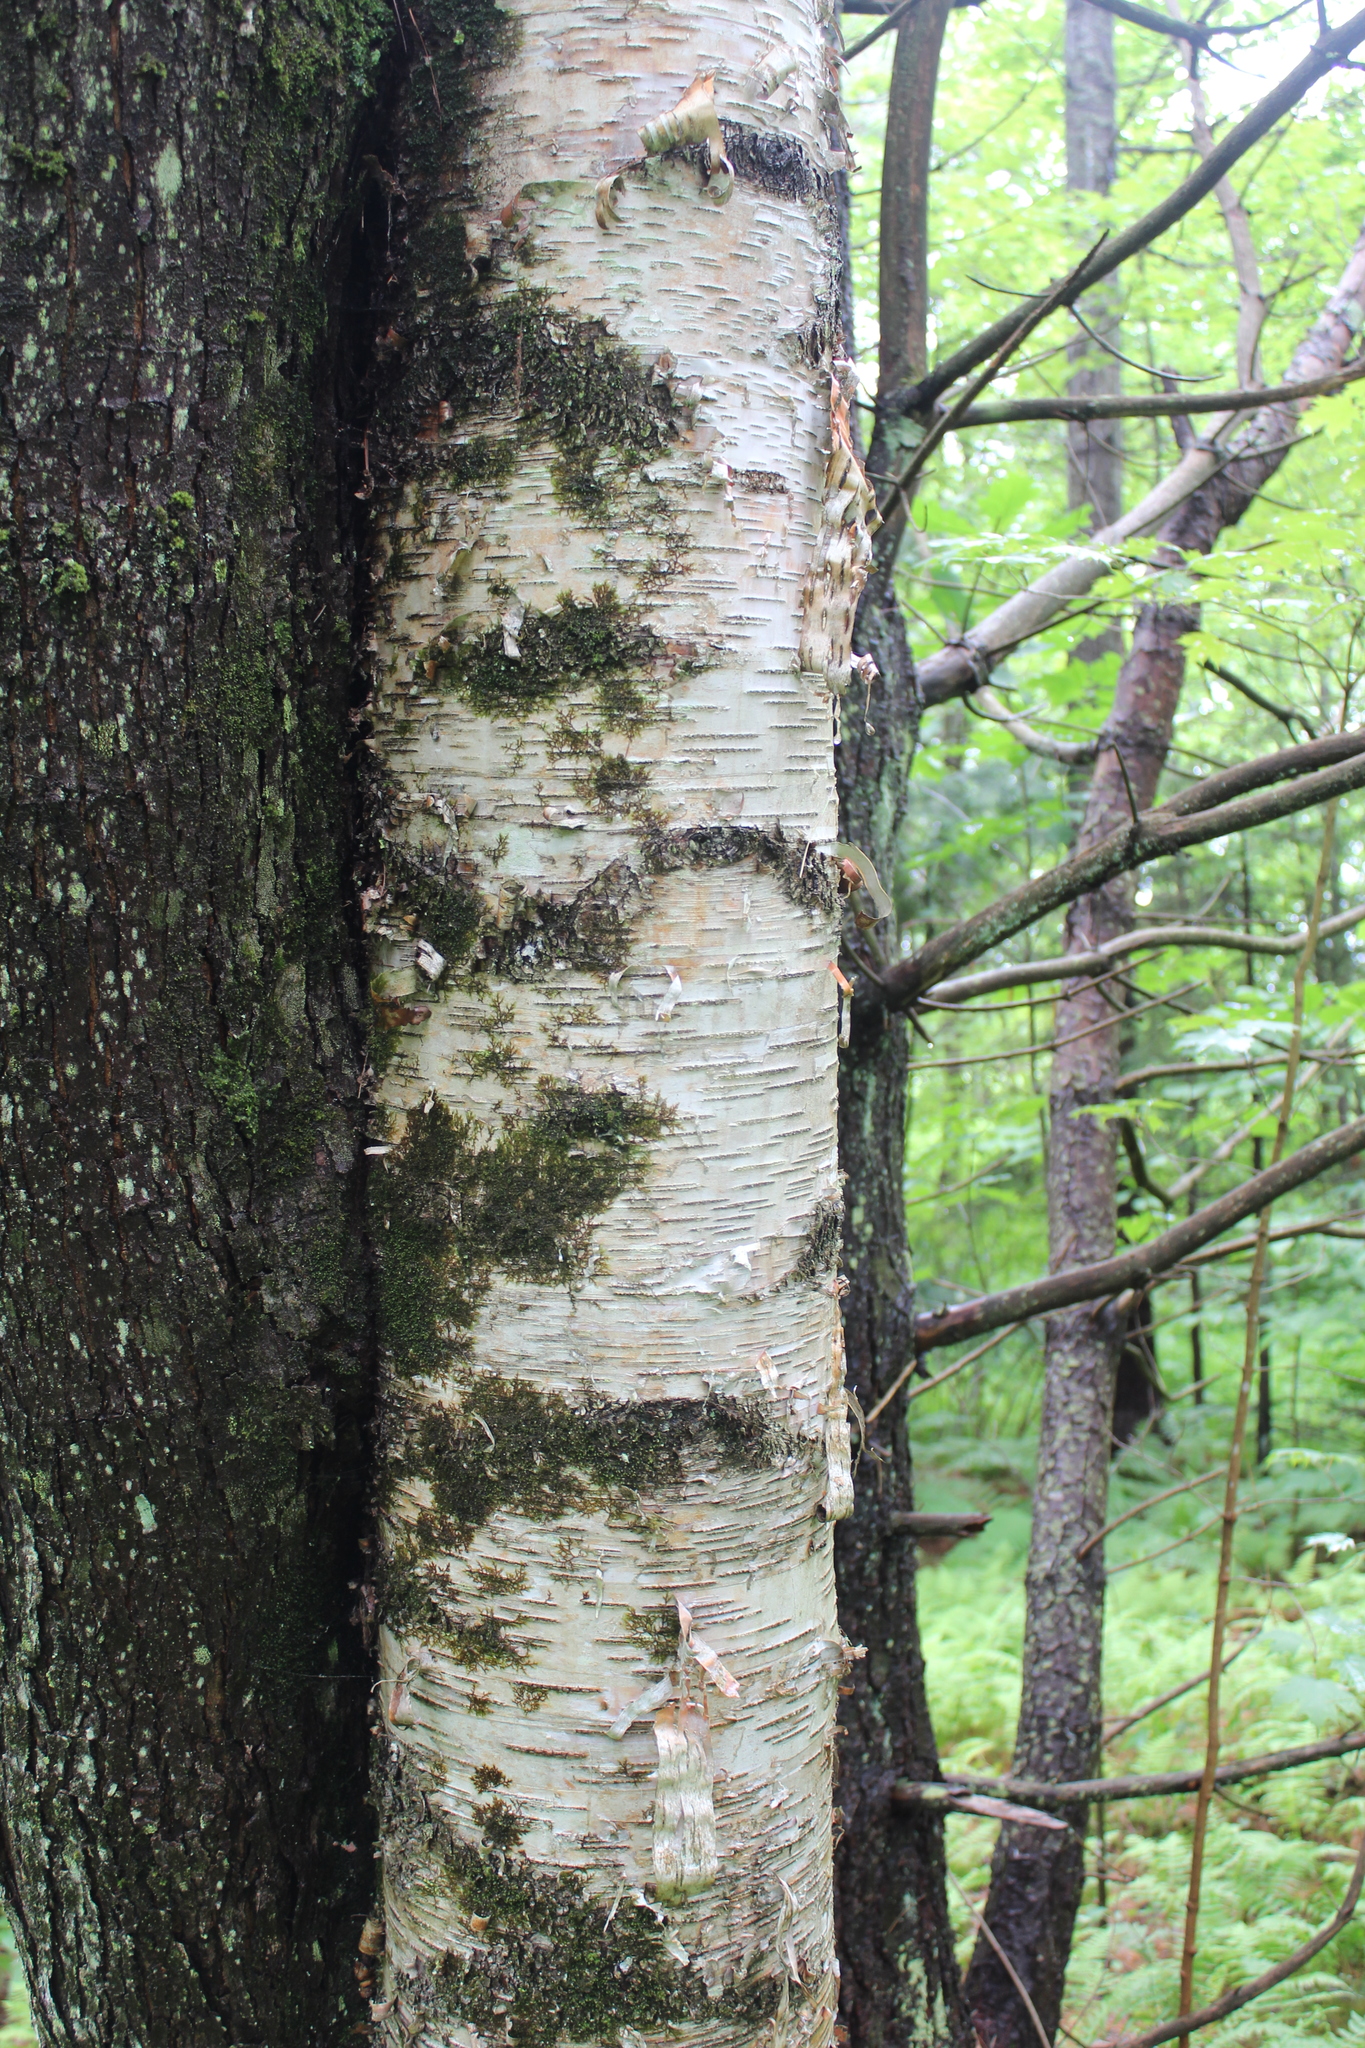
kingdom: Plantae
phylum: Tracheophyta
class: Magnoliopsida
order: Fagales
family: Betulaceae
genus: Betula
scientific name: Betula papyrifera
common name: Paper birch
